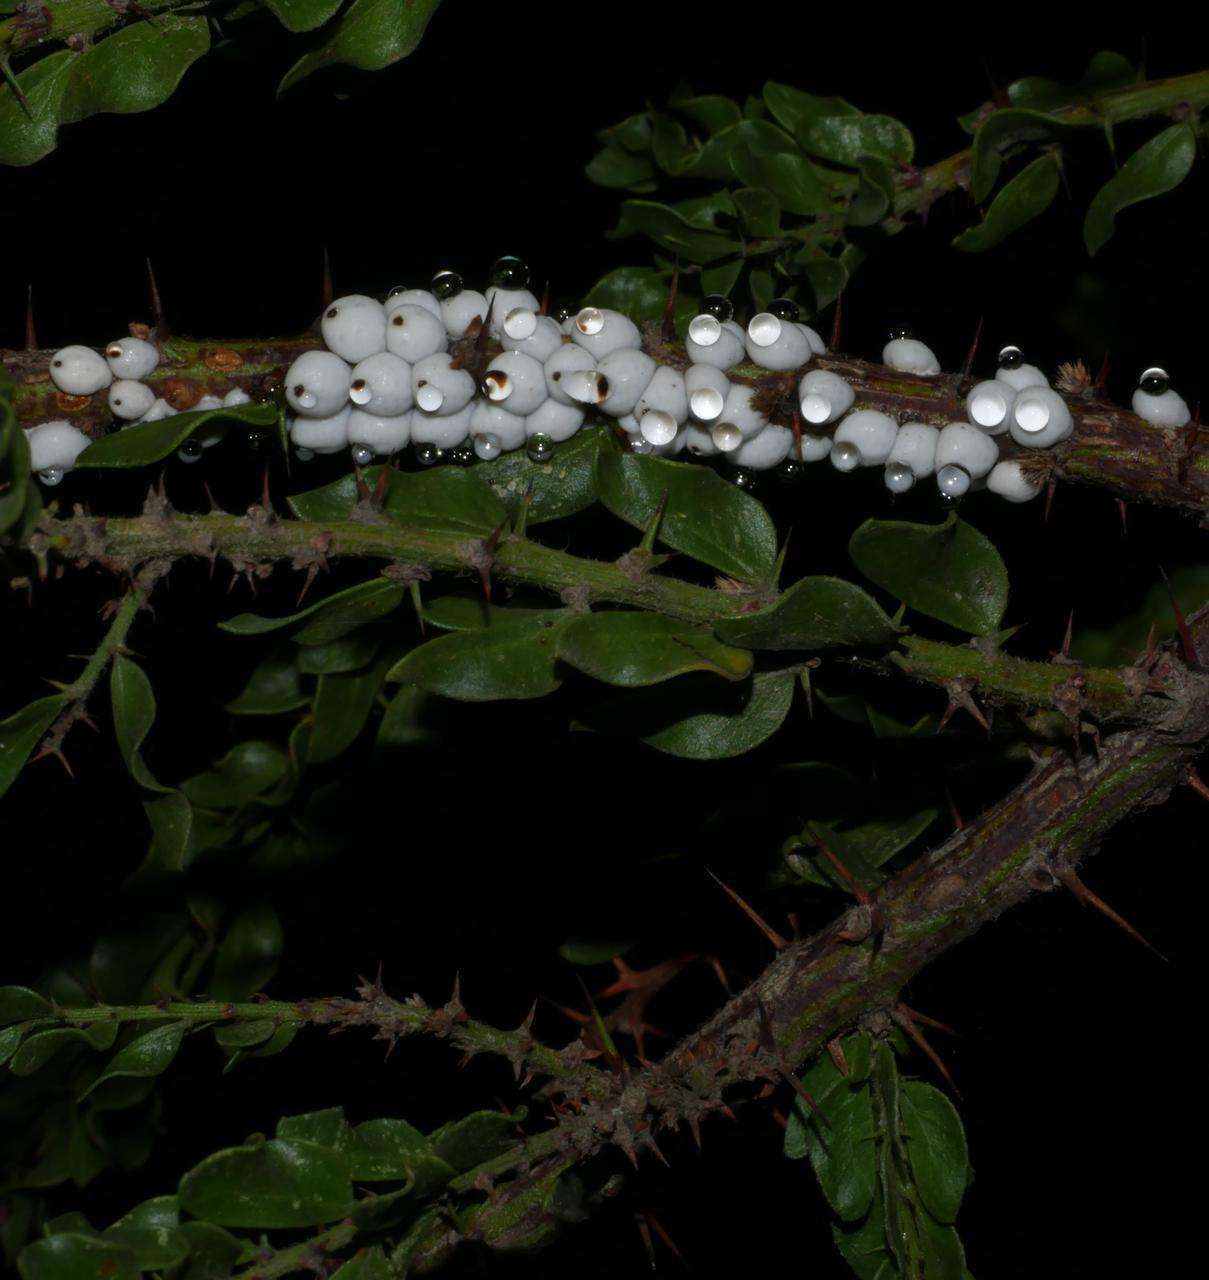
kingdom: Plantae
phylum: Tracheophyta
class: Magnoliopsida
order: Fabales
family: Fabaceae
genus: Acacia
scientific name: Acacia paradoxa
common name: Paradox acacia
